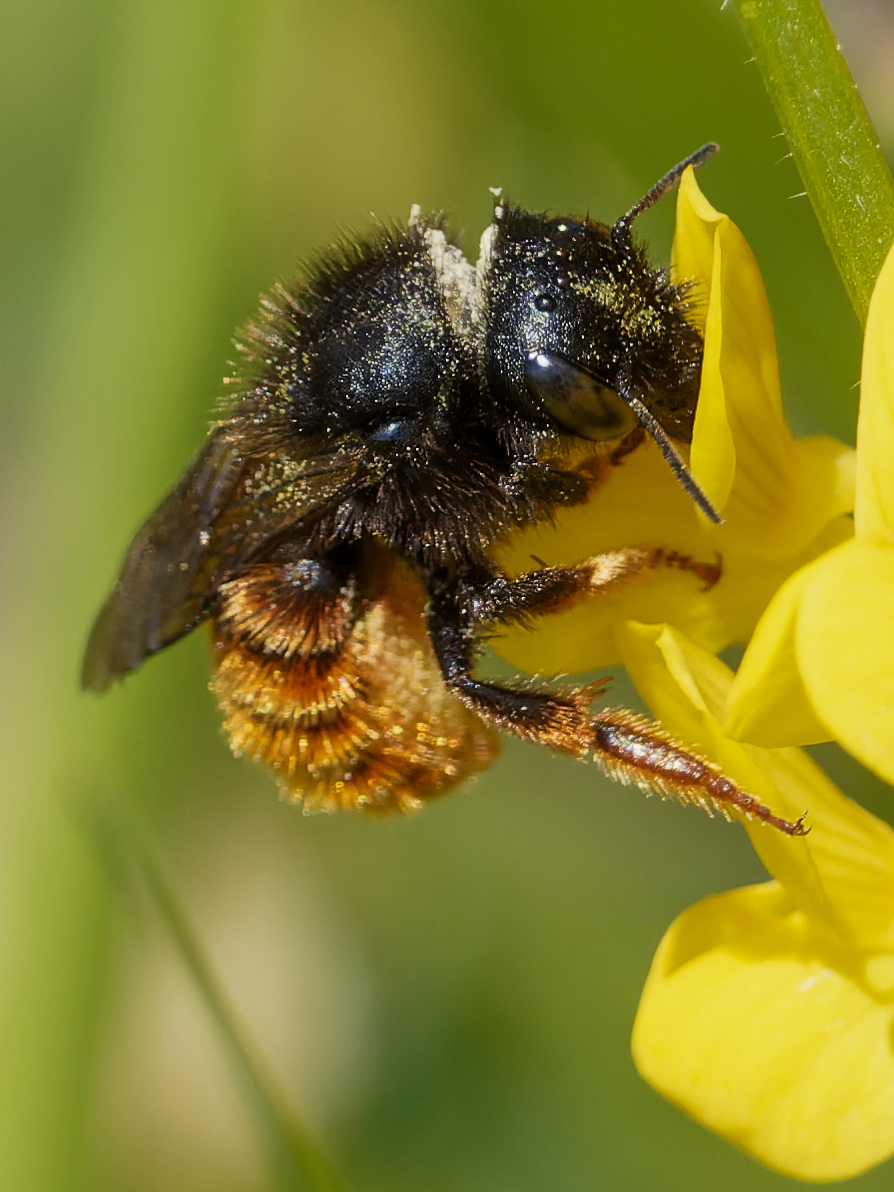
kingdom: Animalia
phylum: Arthropoda
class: Insecta
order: Hymenoptera
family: Megachilidae
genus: Osmia
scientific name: Osmia bicolor
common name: Red-tailed mason bee
